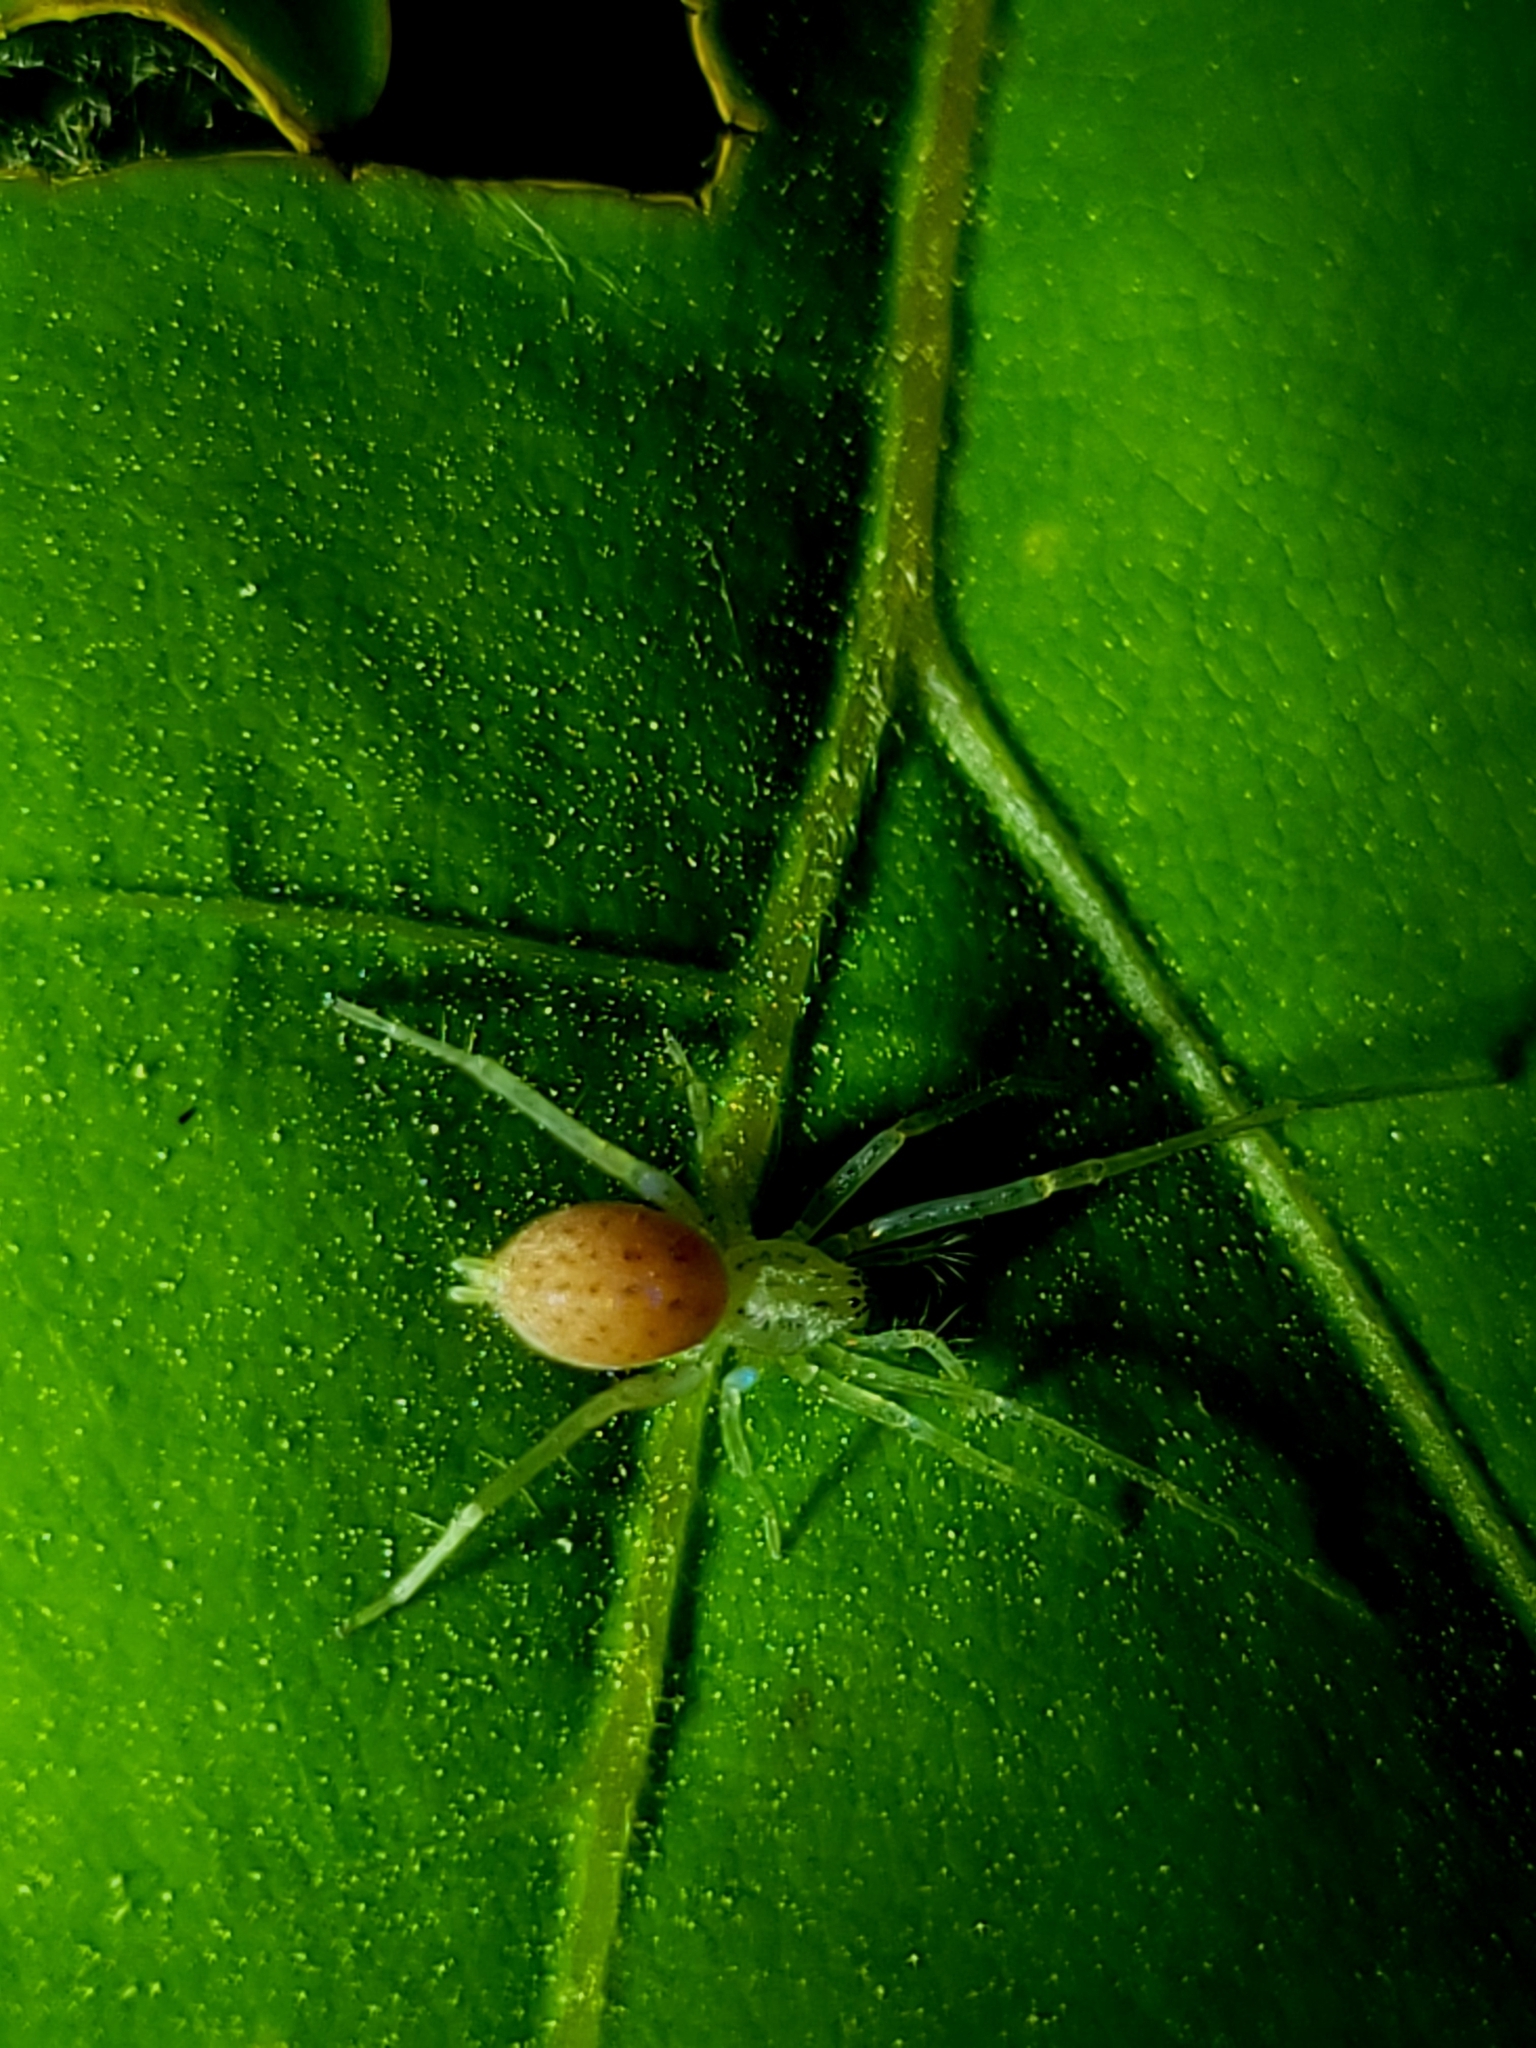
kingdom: Animalia
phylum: Arthropoda
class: Arachnida
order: Araneae
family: Anyphaenidae
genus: Wulfila
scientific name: Wulfila saltabundus
